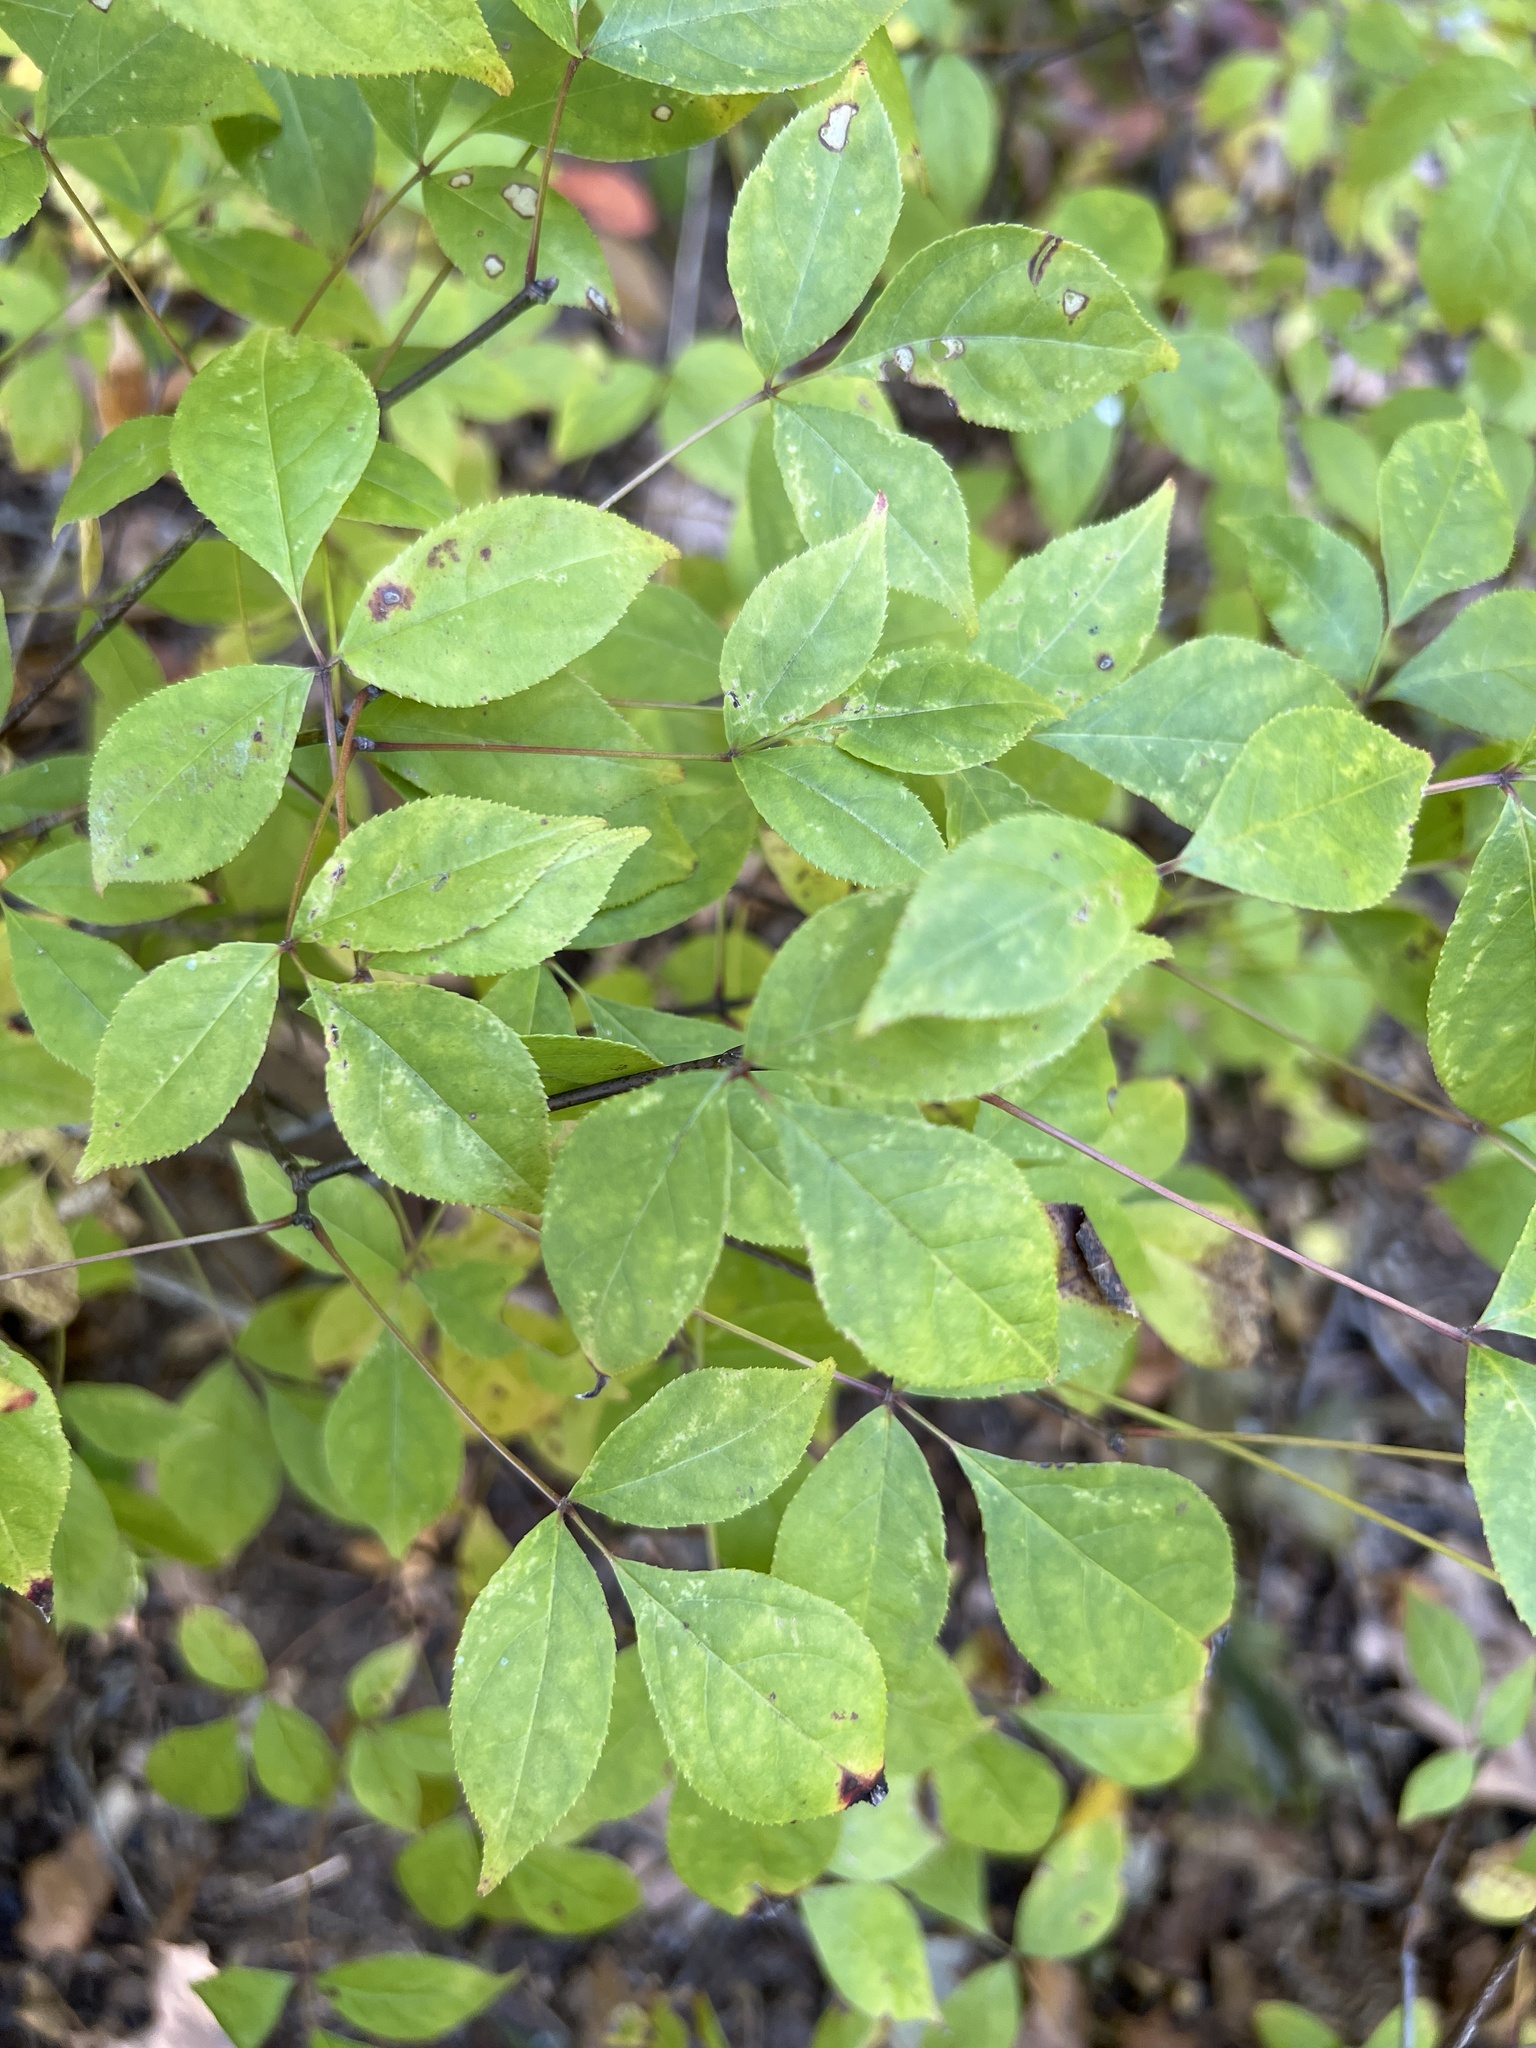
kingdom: Plantae
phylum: Tracheophyta
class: Magnoliopsida
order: Crossosomatales
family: Staphyleaceae
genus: Staphylea
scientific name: Staphylea trifolia
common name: American bladdernut
